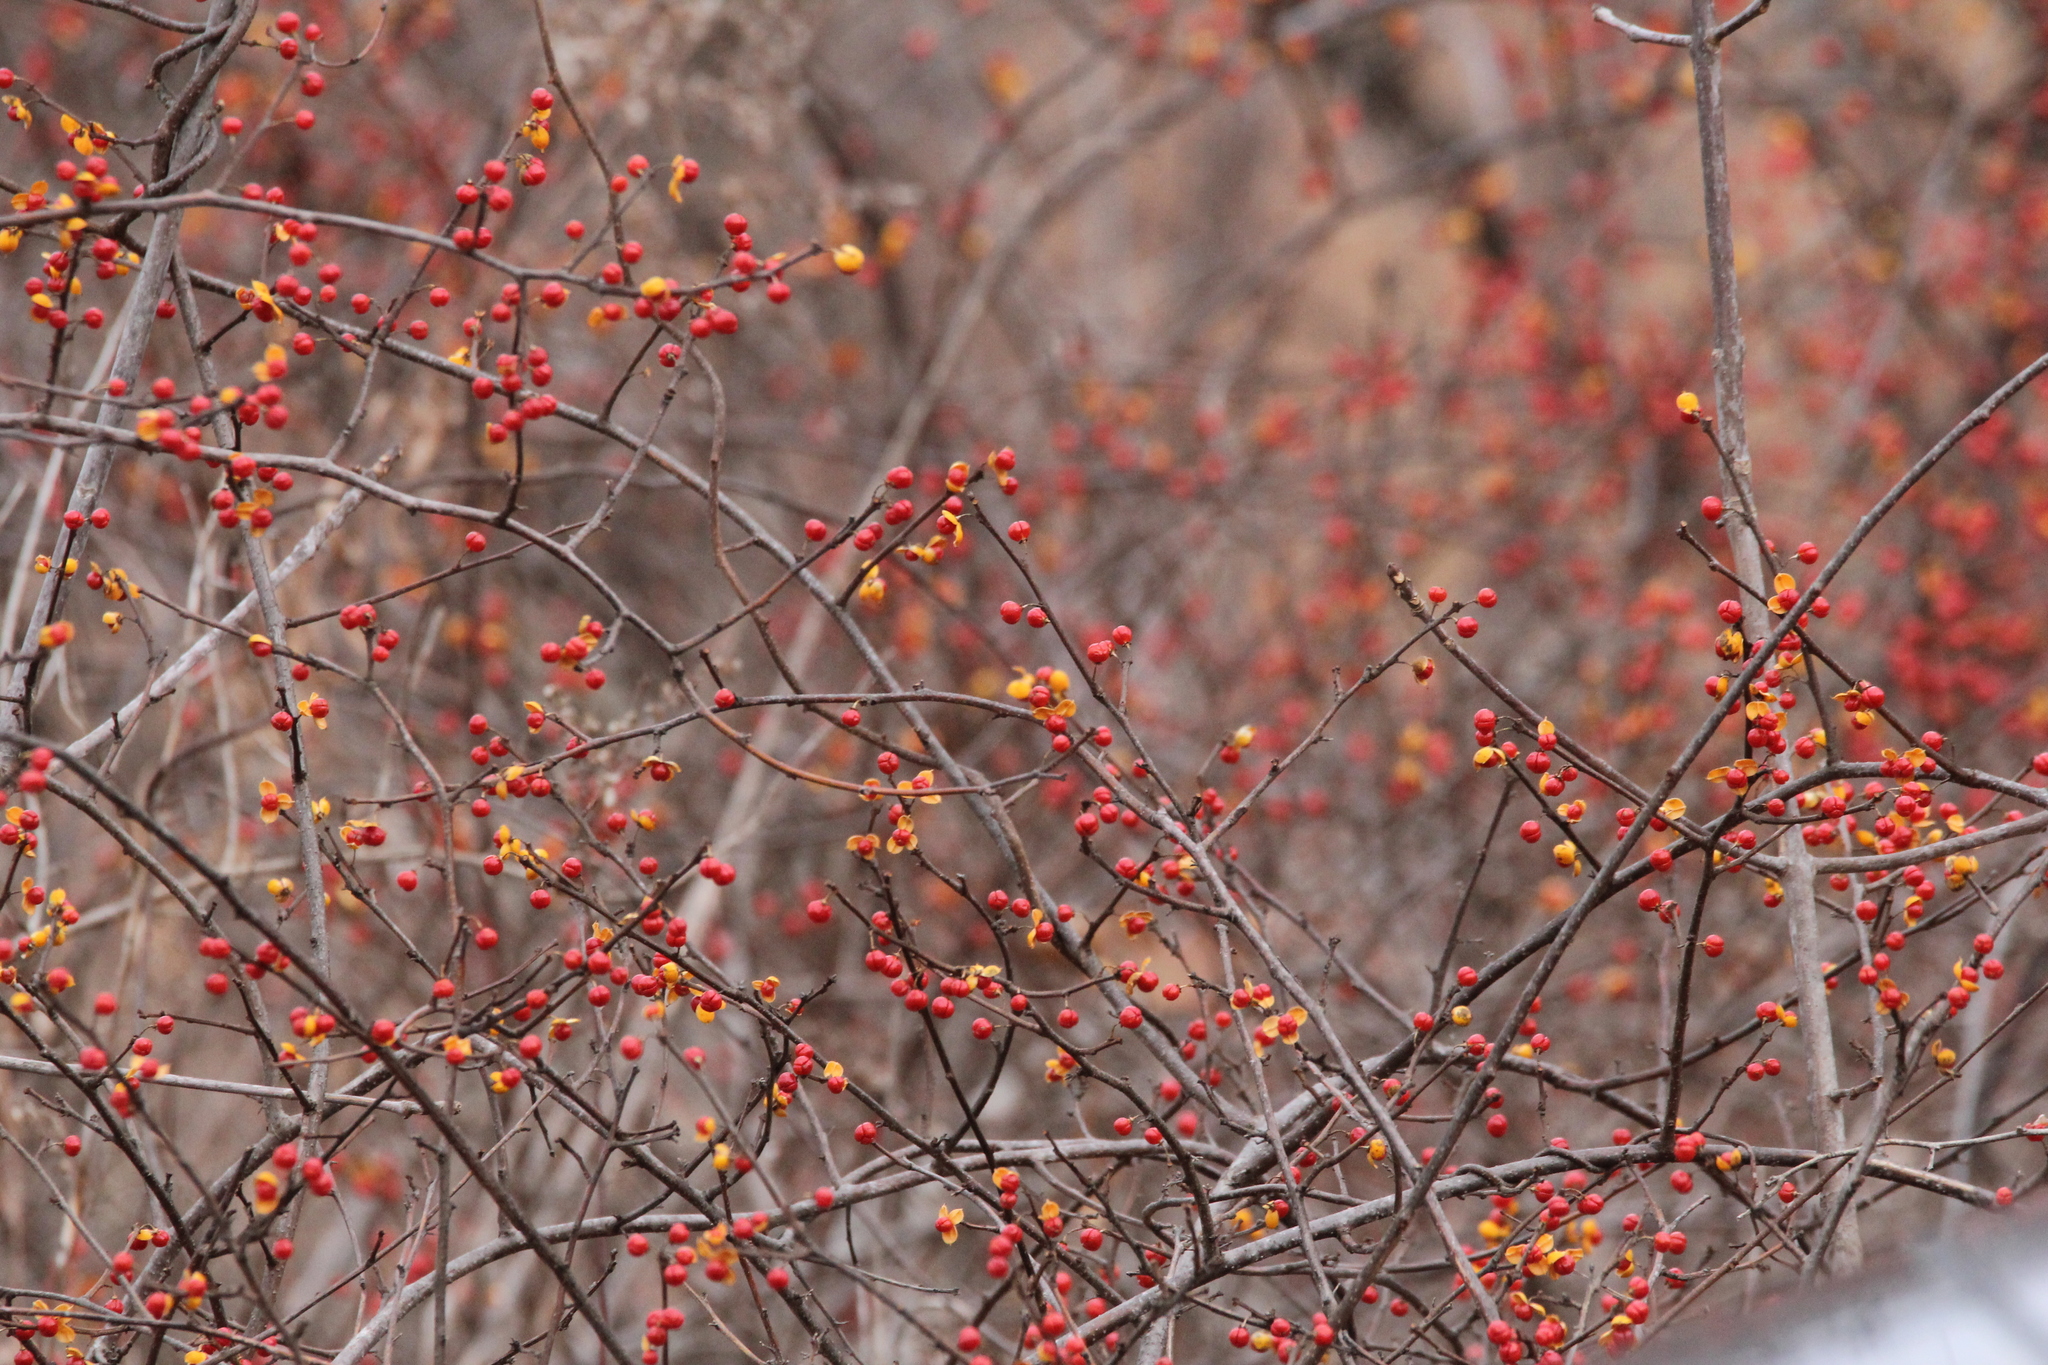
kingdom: Plantae
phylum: Tracheophyta
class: Magnoliopsida
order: Celastrales
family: Celastraceae
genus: Celastrus
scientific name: Celastrus orbiculatus
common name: Oriental bittersweet
